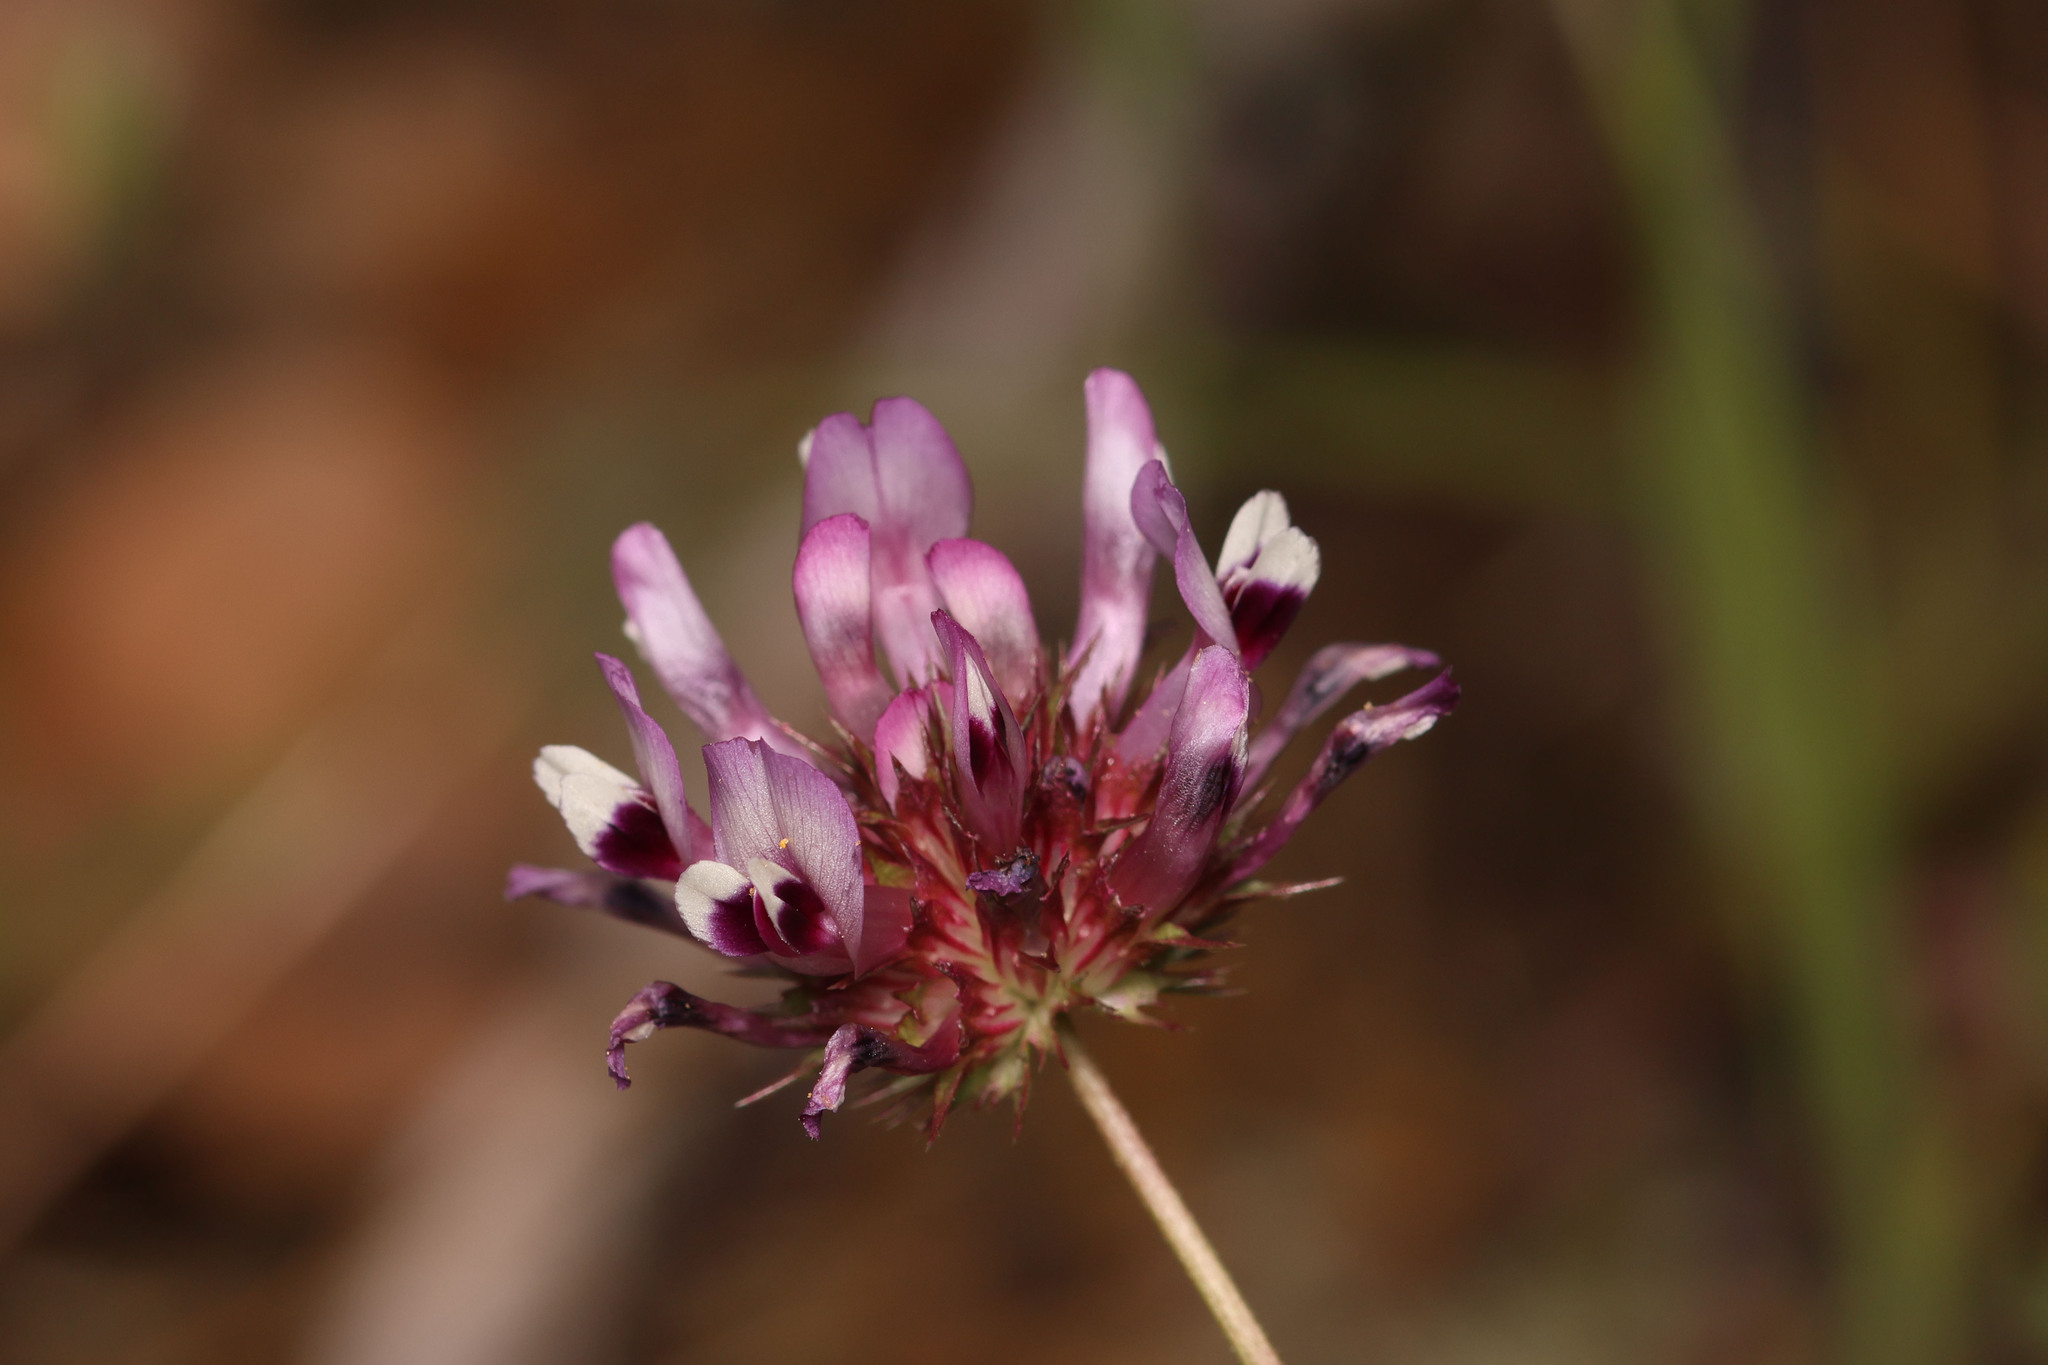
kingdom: Plantae
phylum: Tracheophyta
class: Magnoliopsida
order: Fabales
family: Fabaceae
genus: Trifolium
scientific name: Trifolium willdenovii
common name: Tomcat clover
